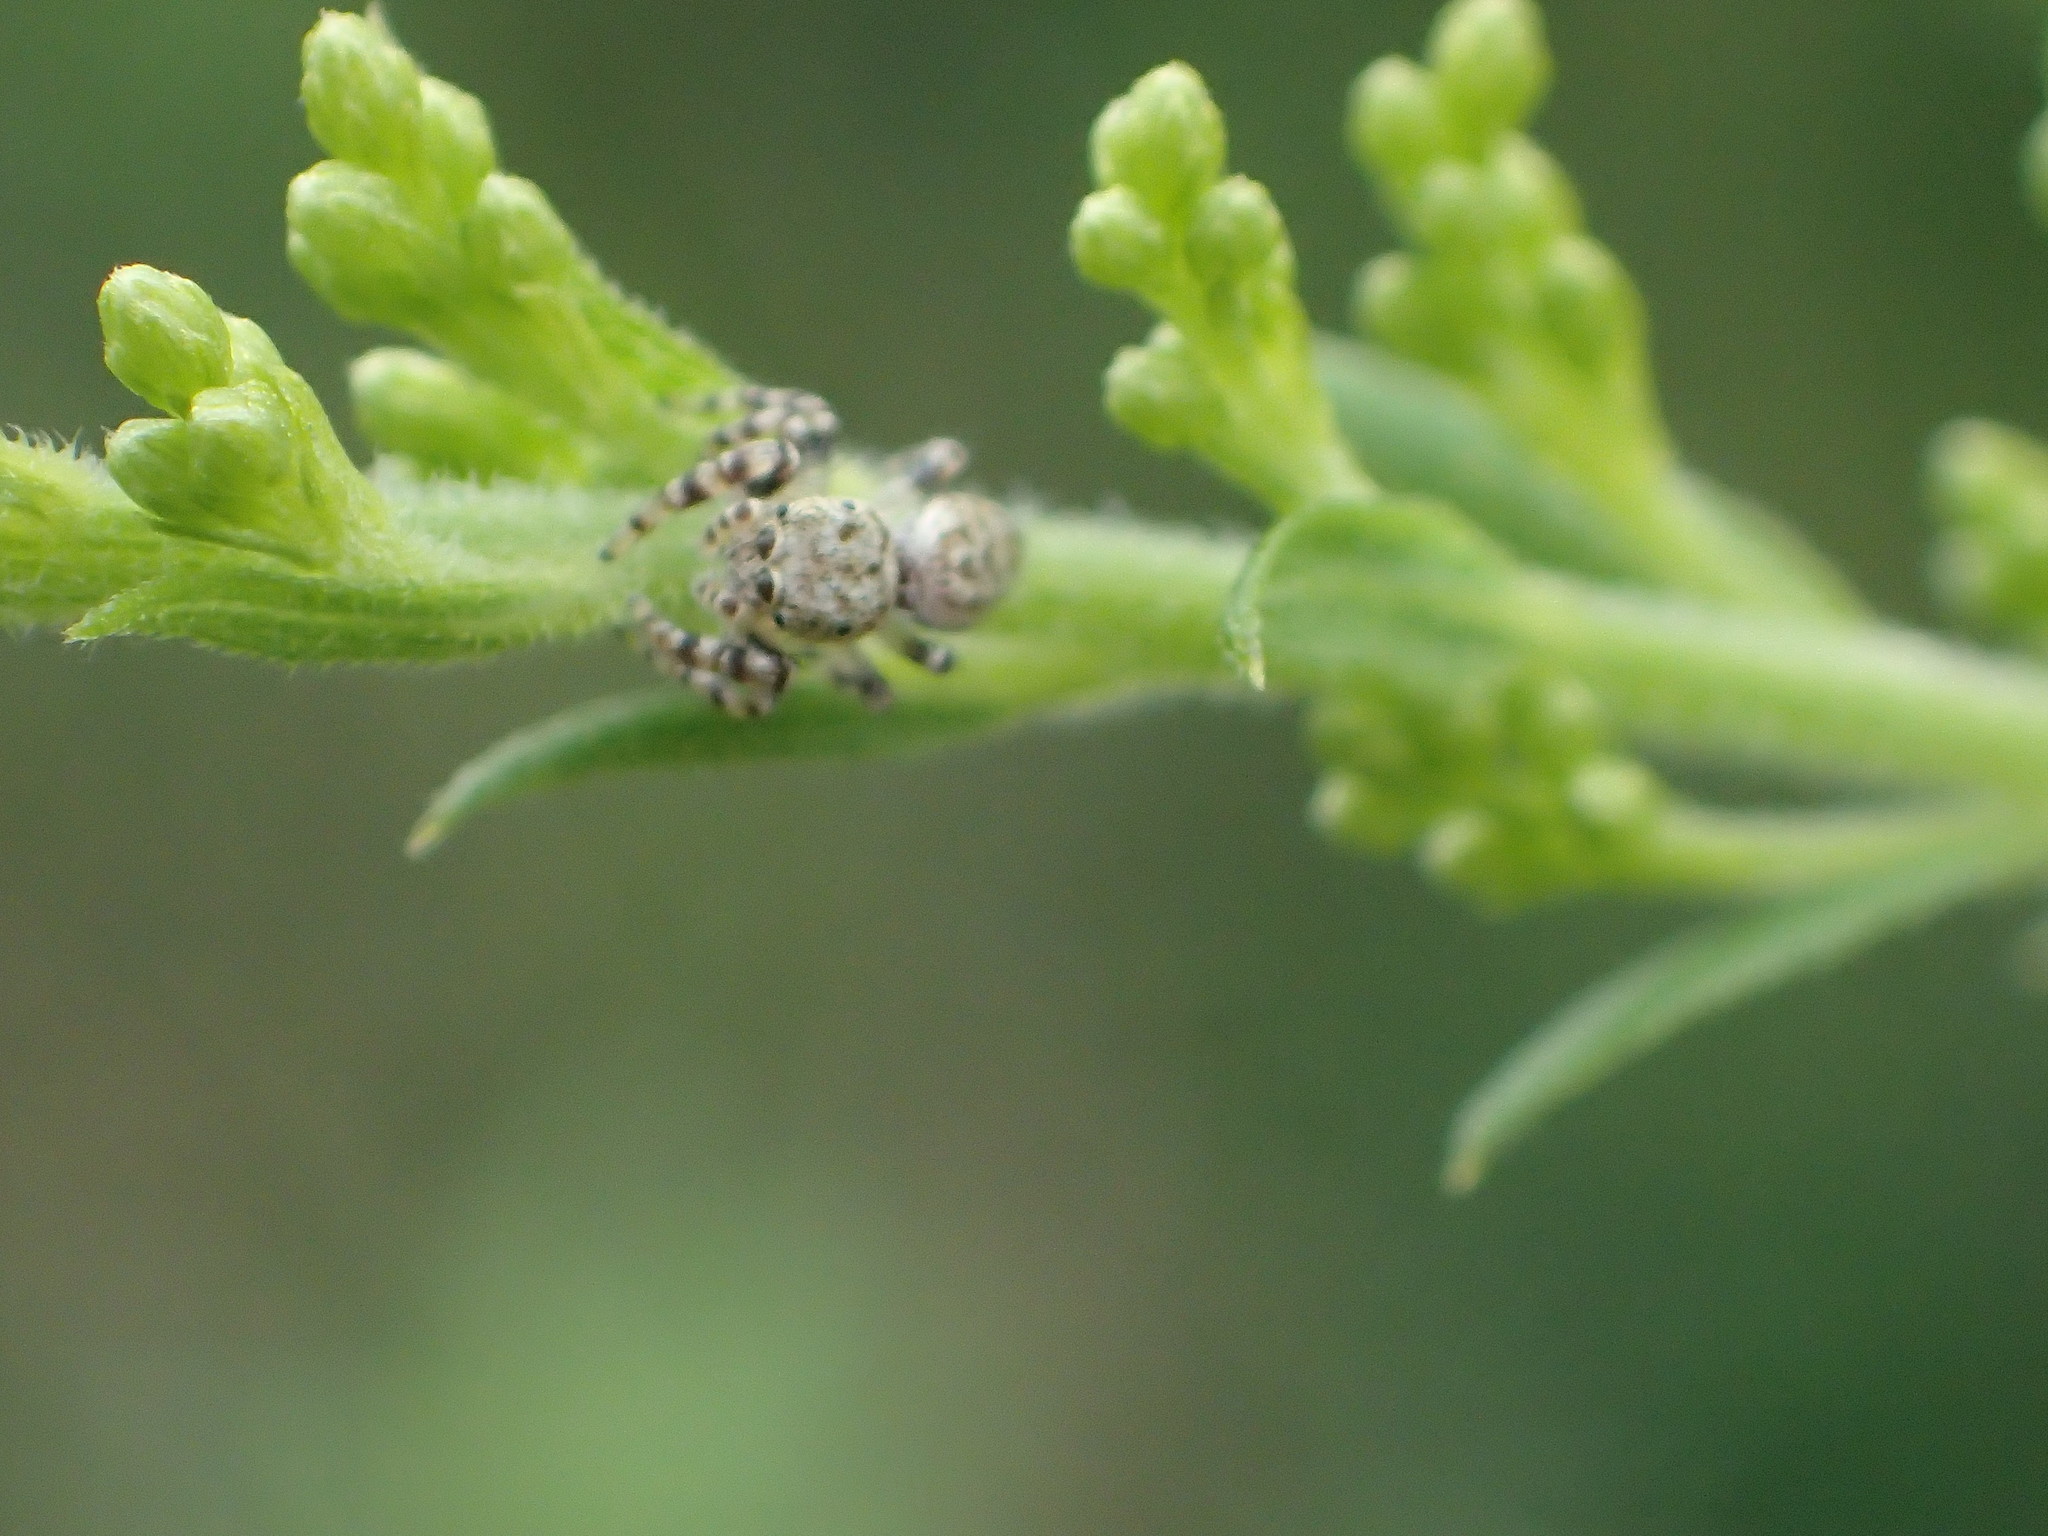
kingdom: Animalia
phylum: Arthropoda
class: Arachnida
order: Araneae
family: Salticidae
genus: Pelegrina
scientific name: Pelegrina galathea
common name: Jumping spiders
